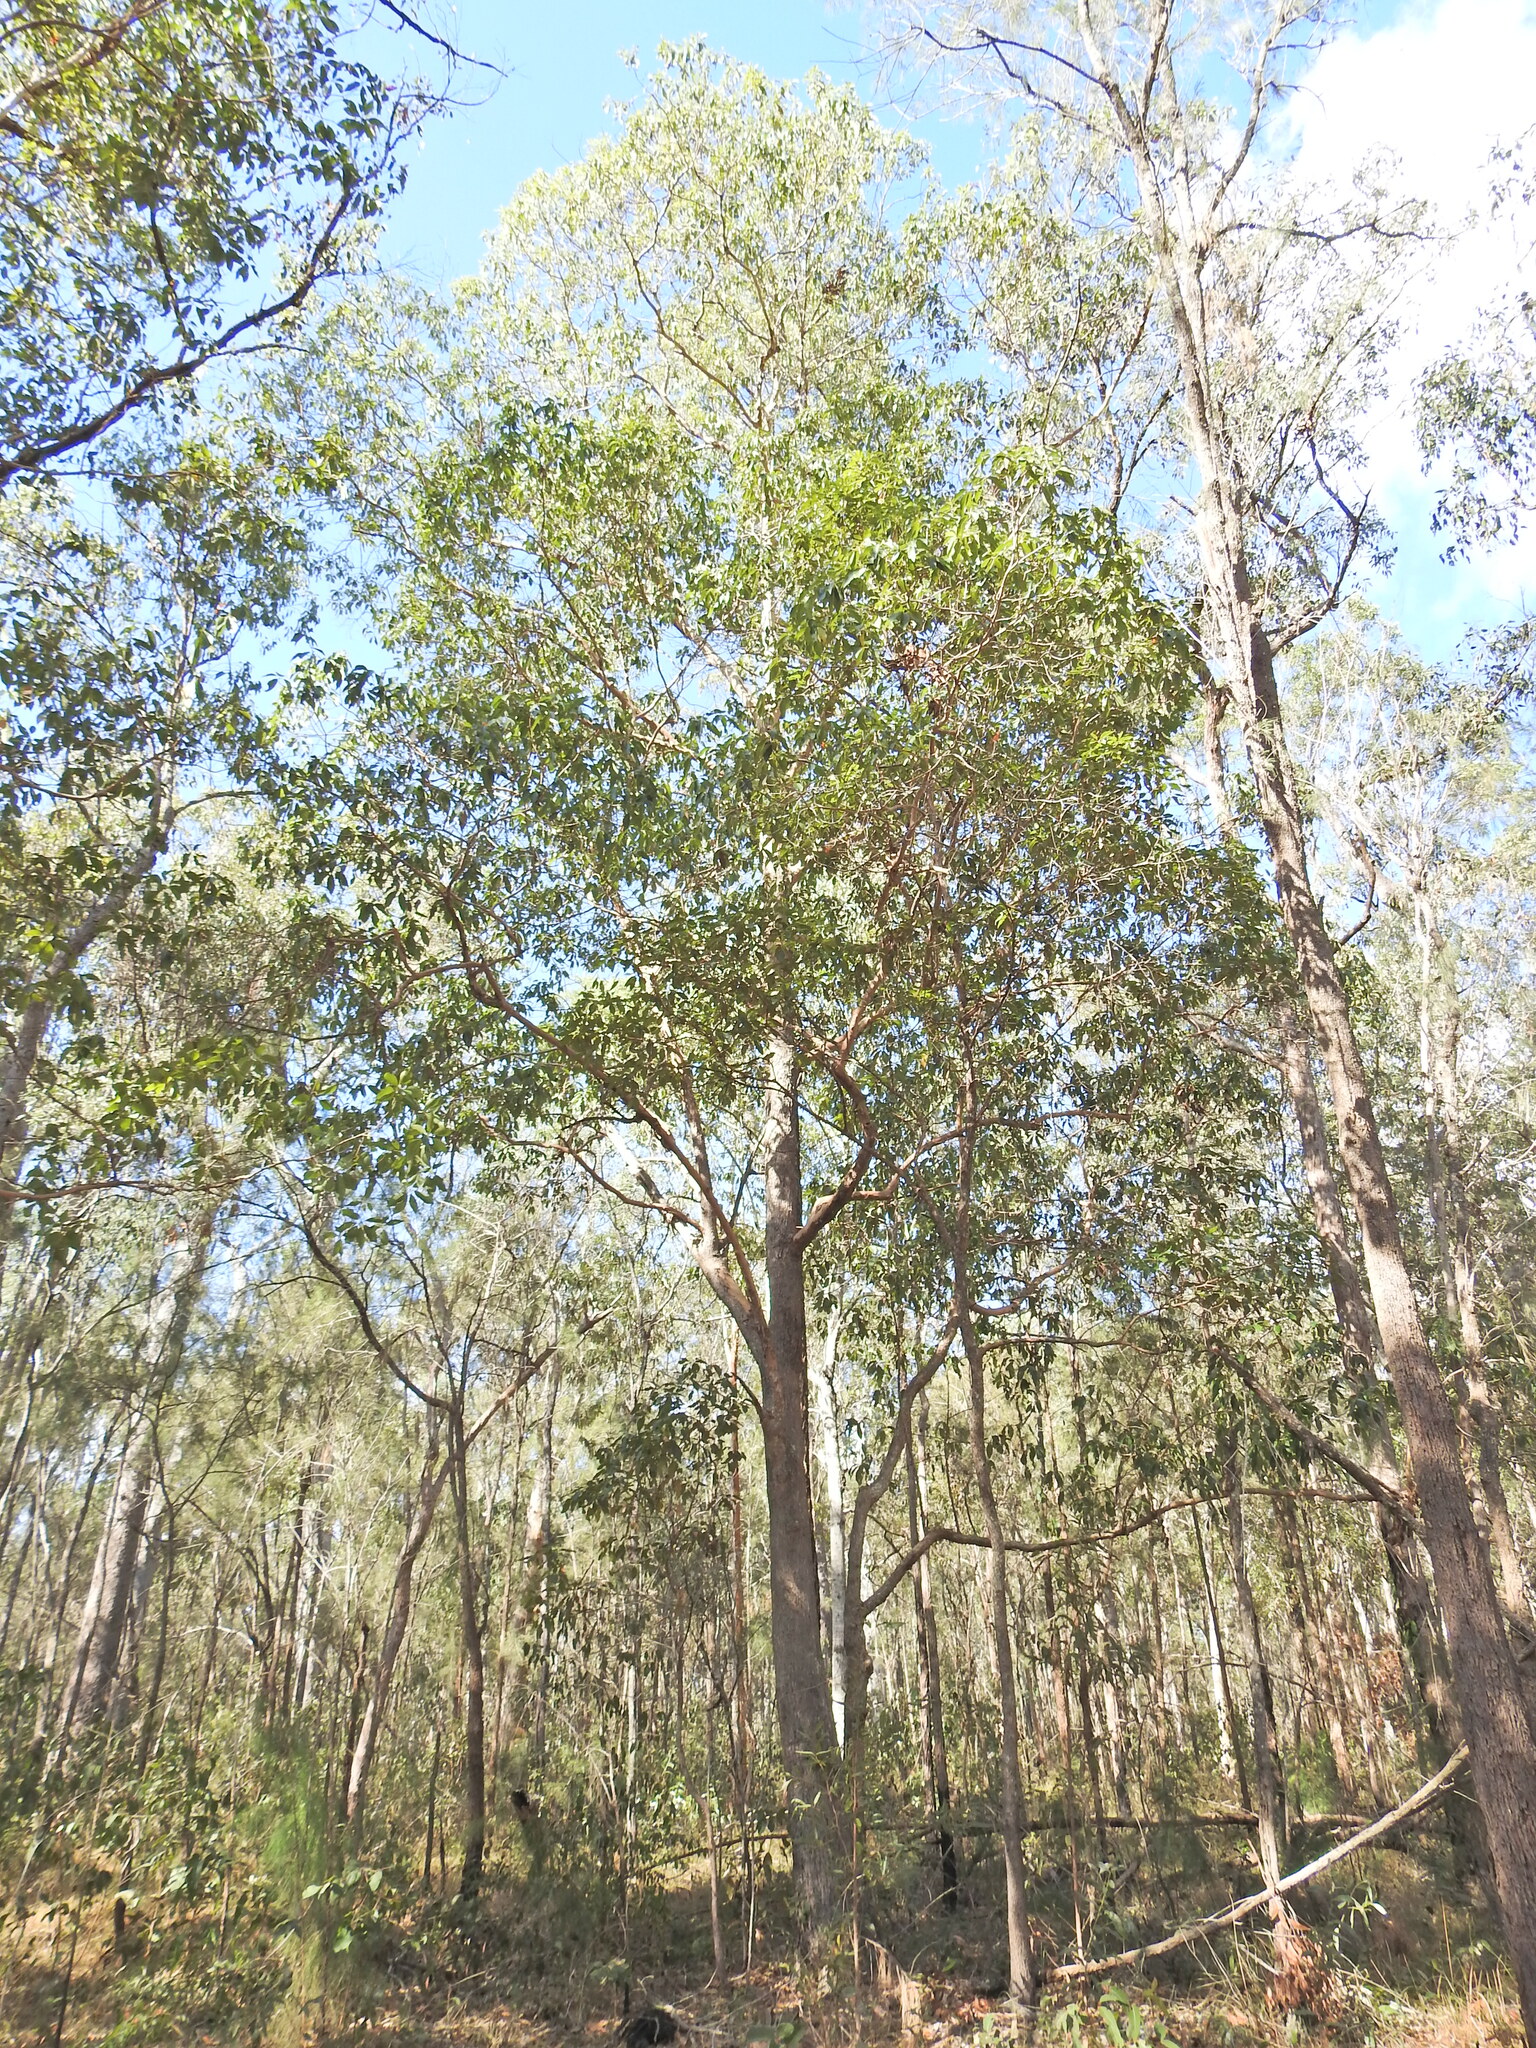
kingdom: Plantae
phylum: Tracheophyta
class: Magnoliopsida
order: Myrtales
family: Myrtaceae
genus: Lophostemon
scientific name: Lophostemon confertus
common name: Brisbane box
